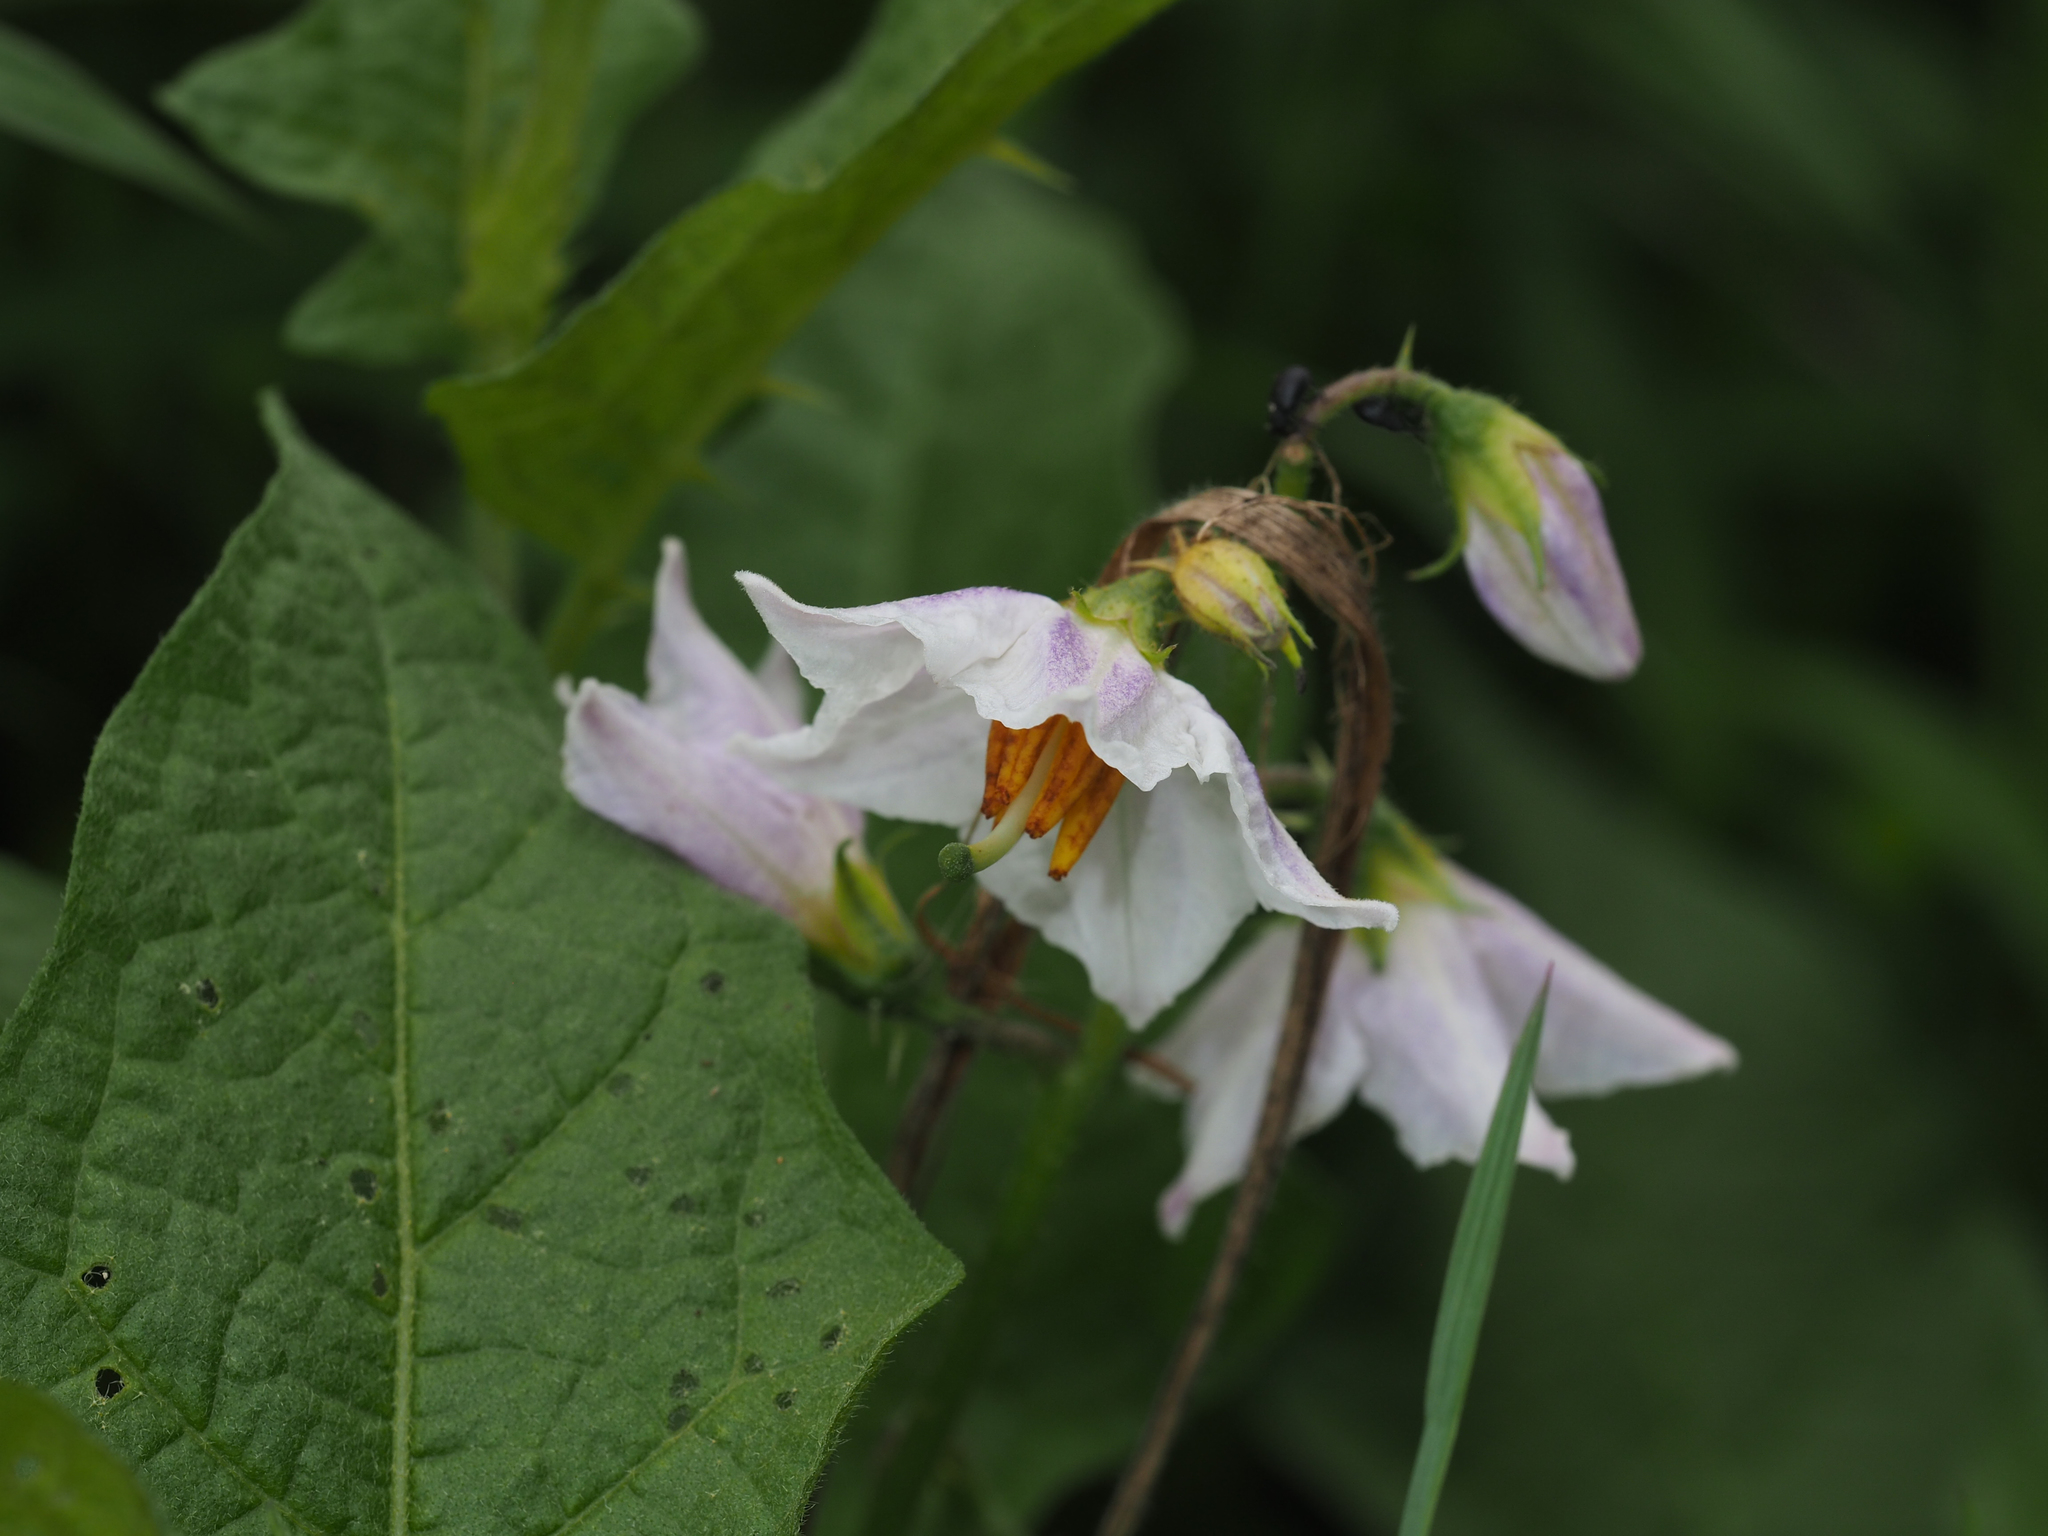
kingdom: Plantae
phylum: Tracheophyta
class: Magnoliopsida
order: Solanales
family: Solanaceae
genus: Solanum
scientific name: Solanum carolinense
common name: Horse-nettle
